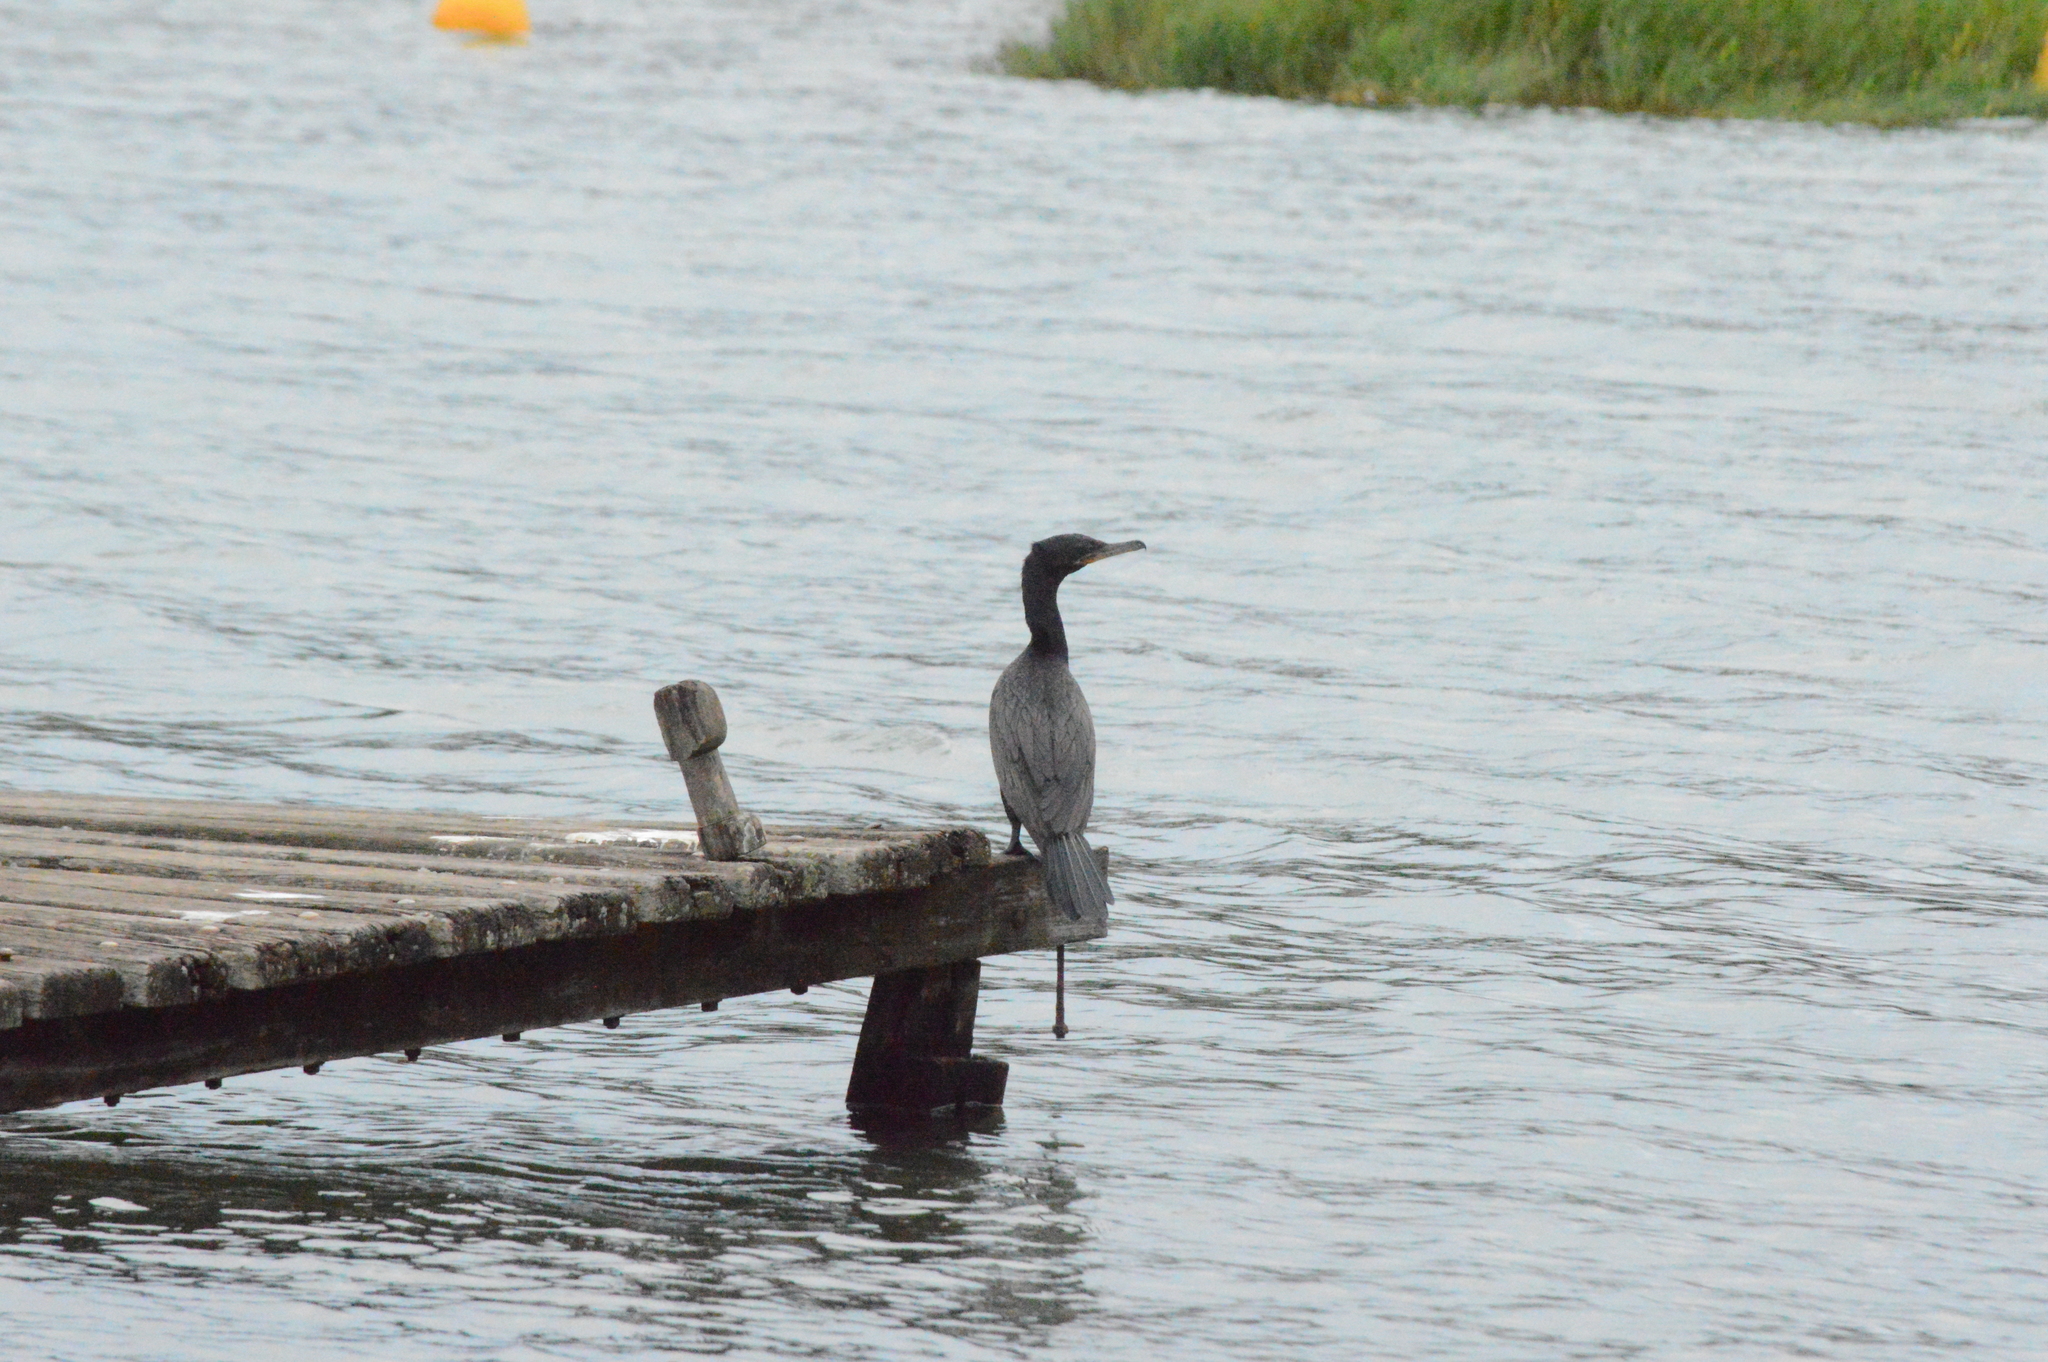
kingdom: Animalia
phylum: Chordata
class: Aves
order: Suliformes
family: Phalacrocoracidae
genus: Phalacrocorax
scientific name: Phalacrocorax brasilianus
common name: Neotropic cormorant
